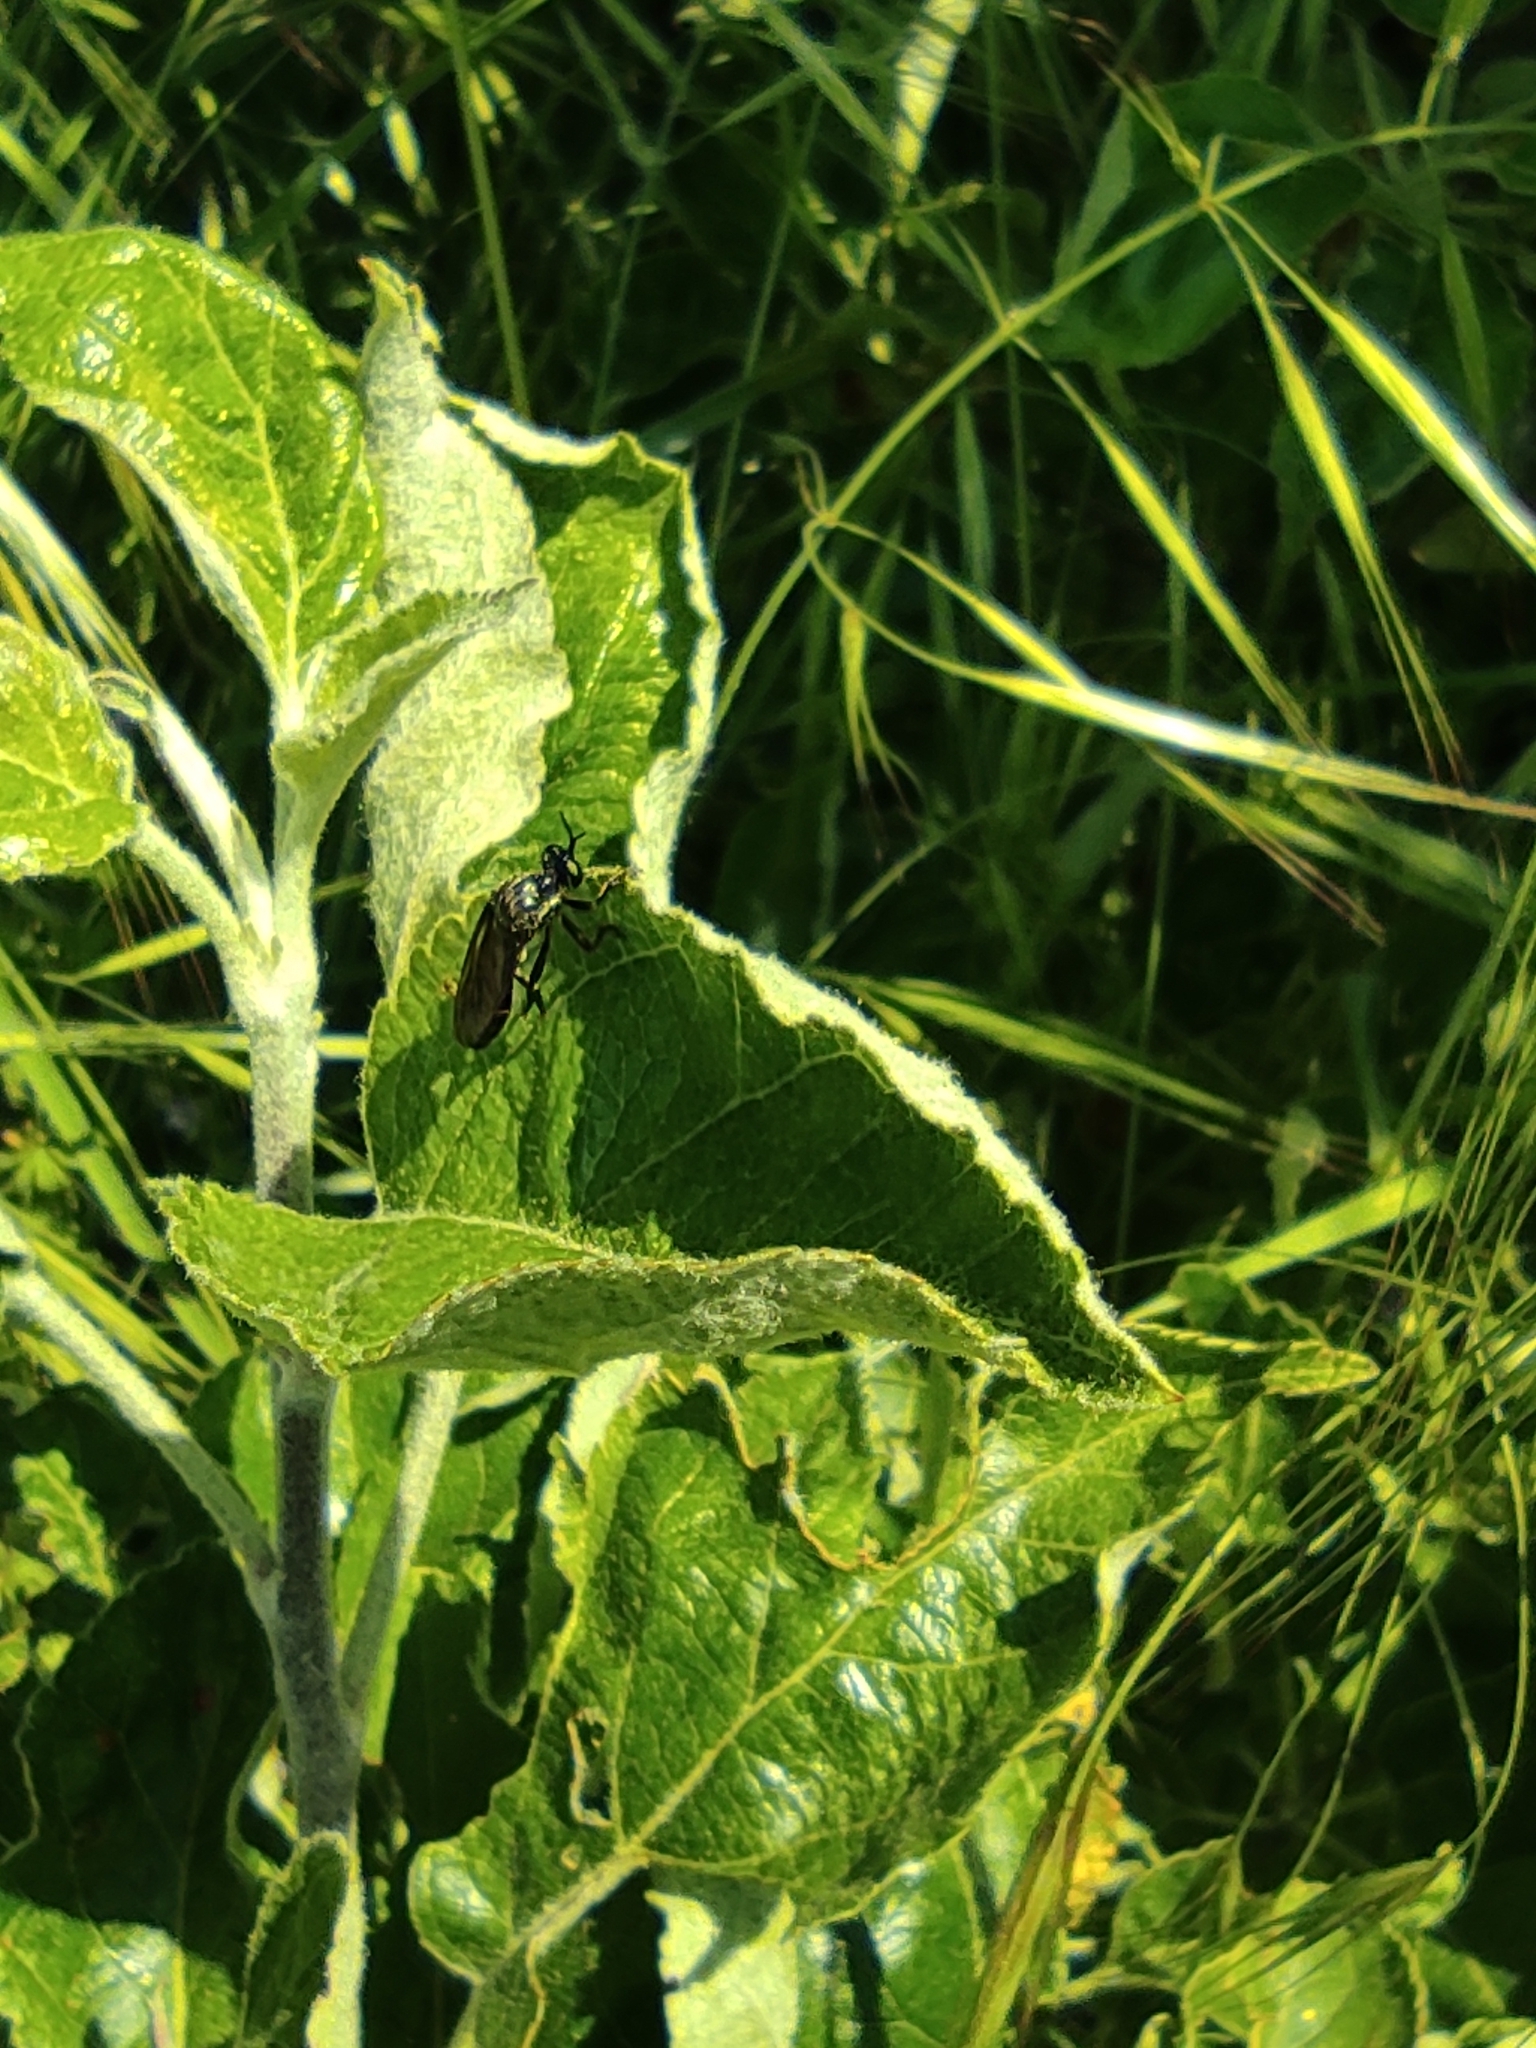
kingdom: Animalia
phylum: Arthropoda
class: Insecta
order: Diptera
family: Asilidae
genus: Dioctria
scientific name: Dioctria atricapilla
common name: Violet black-legged
